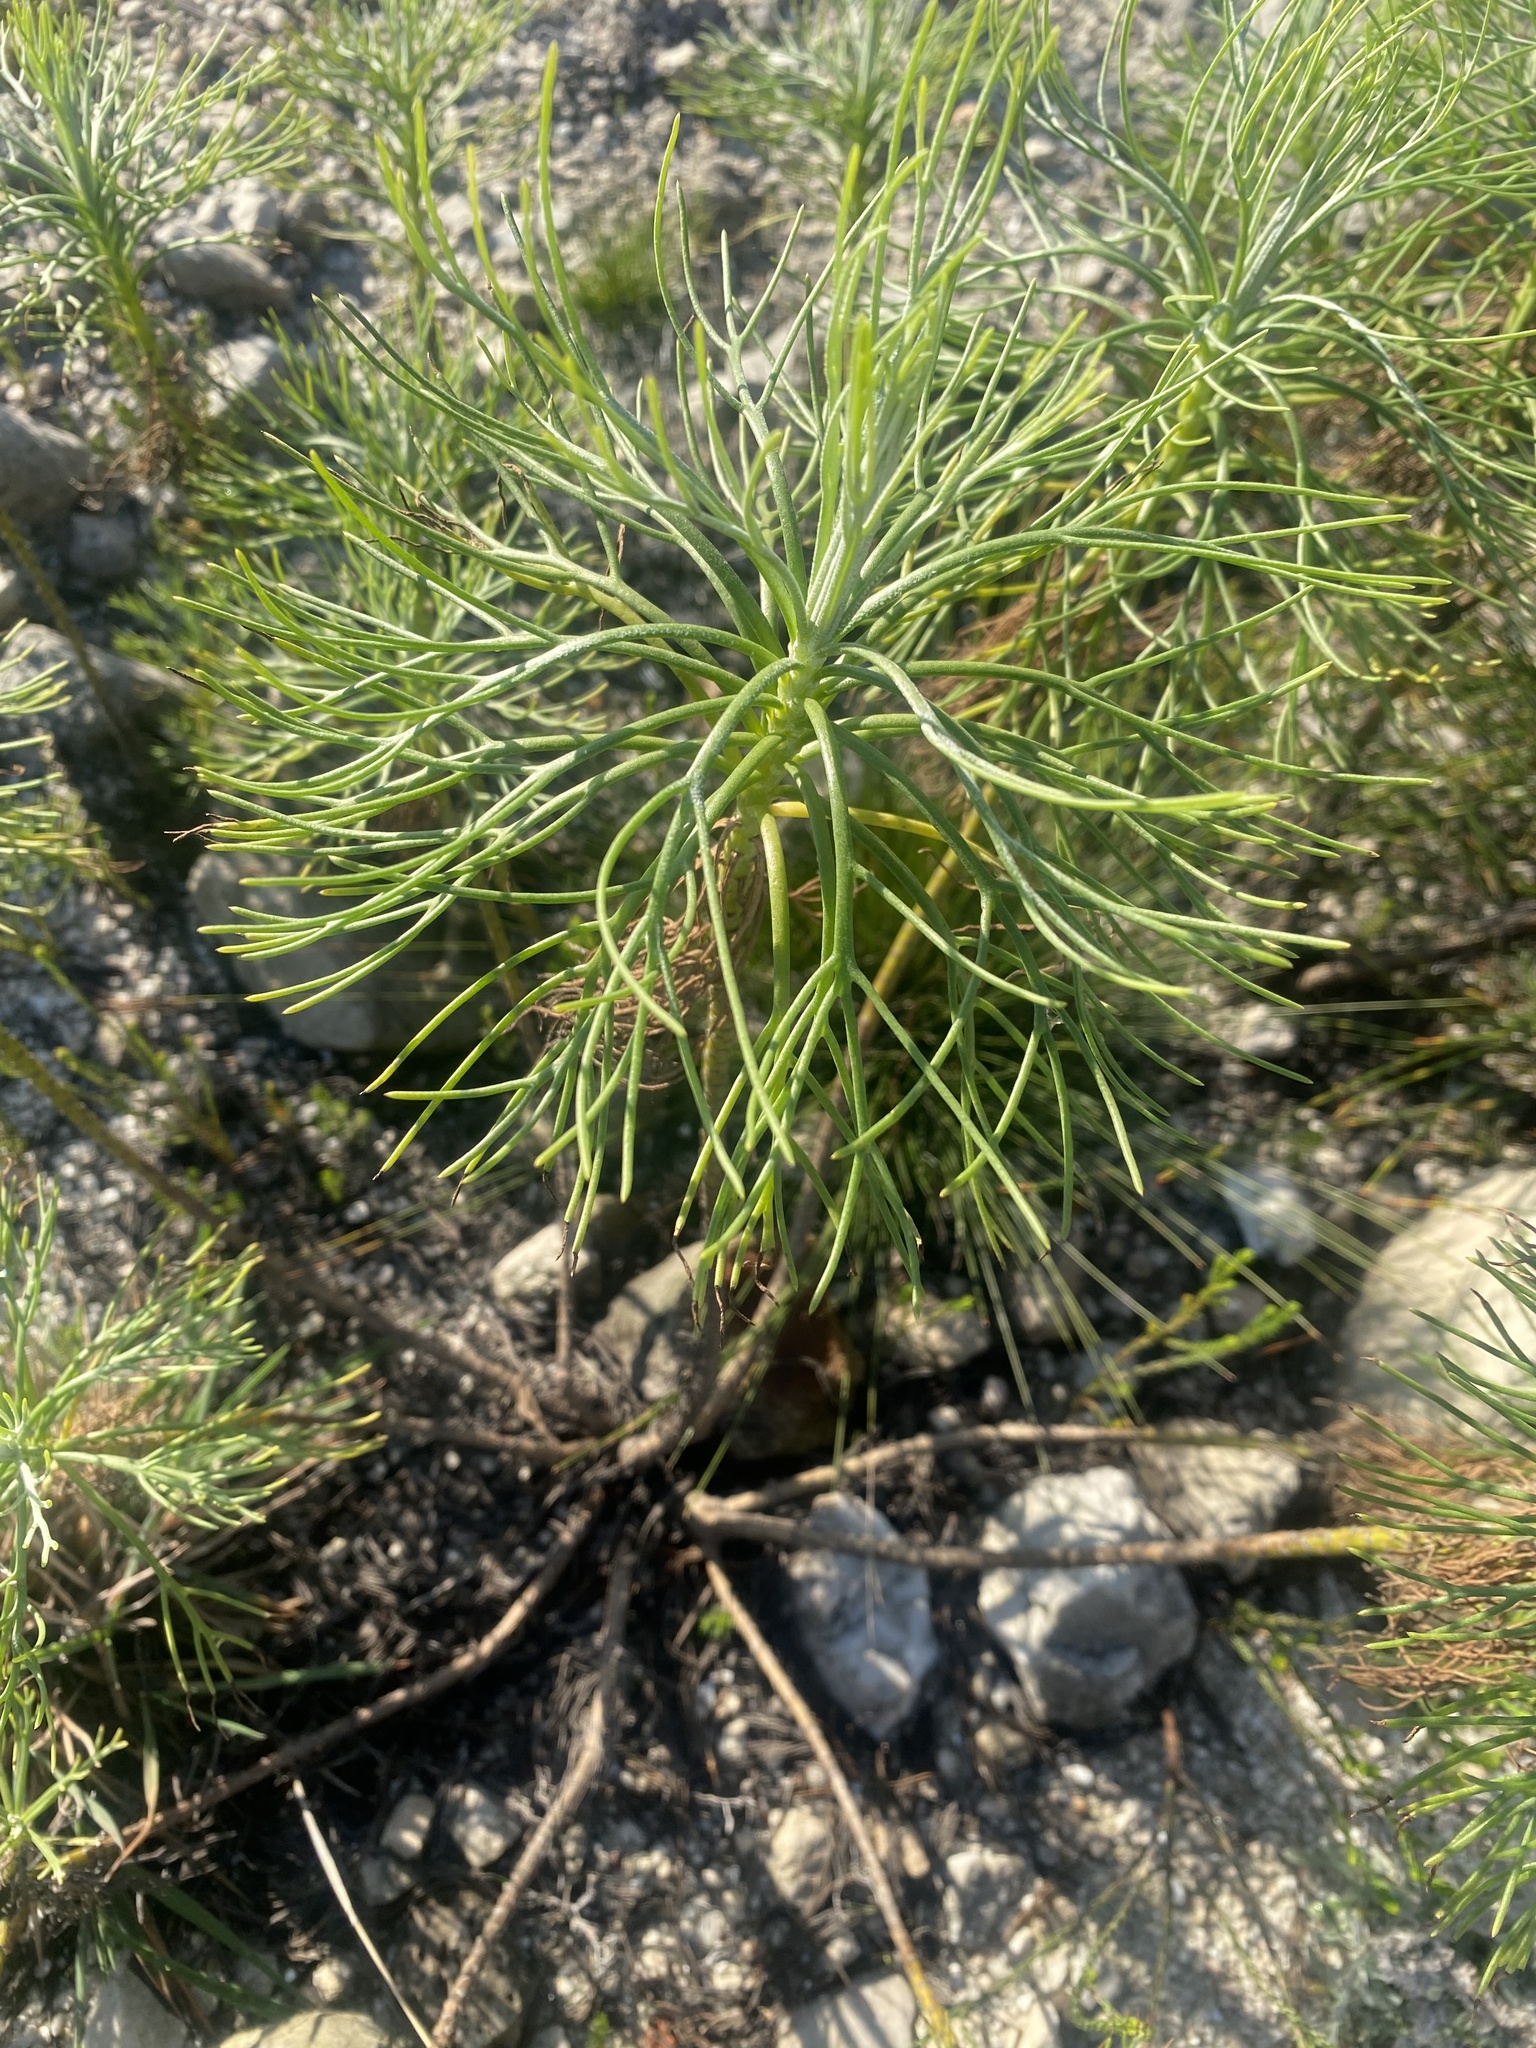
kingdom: Plantae
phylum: Tracheophyta
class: Magnoliopsida
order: Asterales
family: Asteraceae
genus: Hymenolepis
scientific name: Hymenolepis crithmifolia
